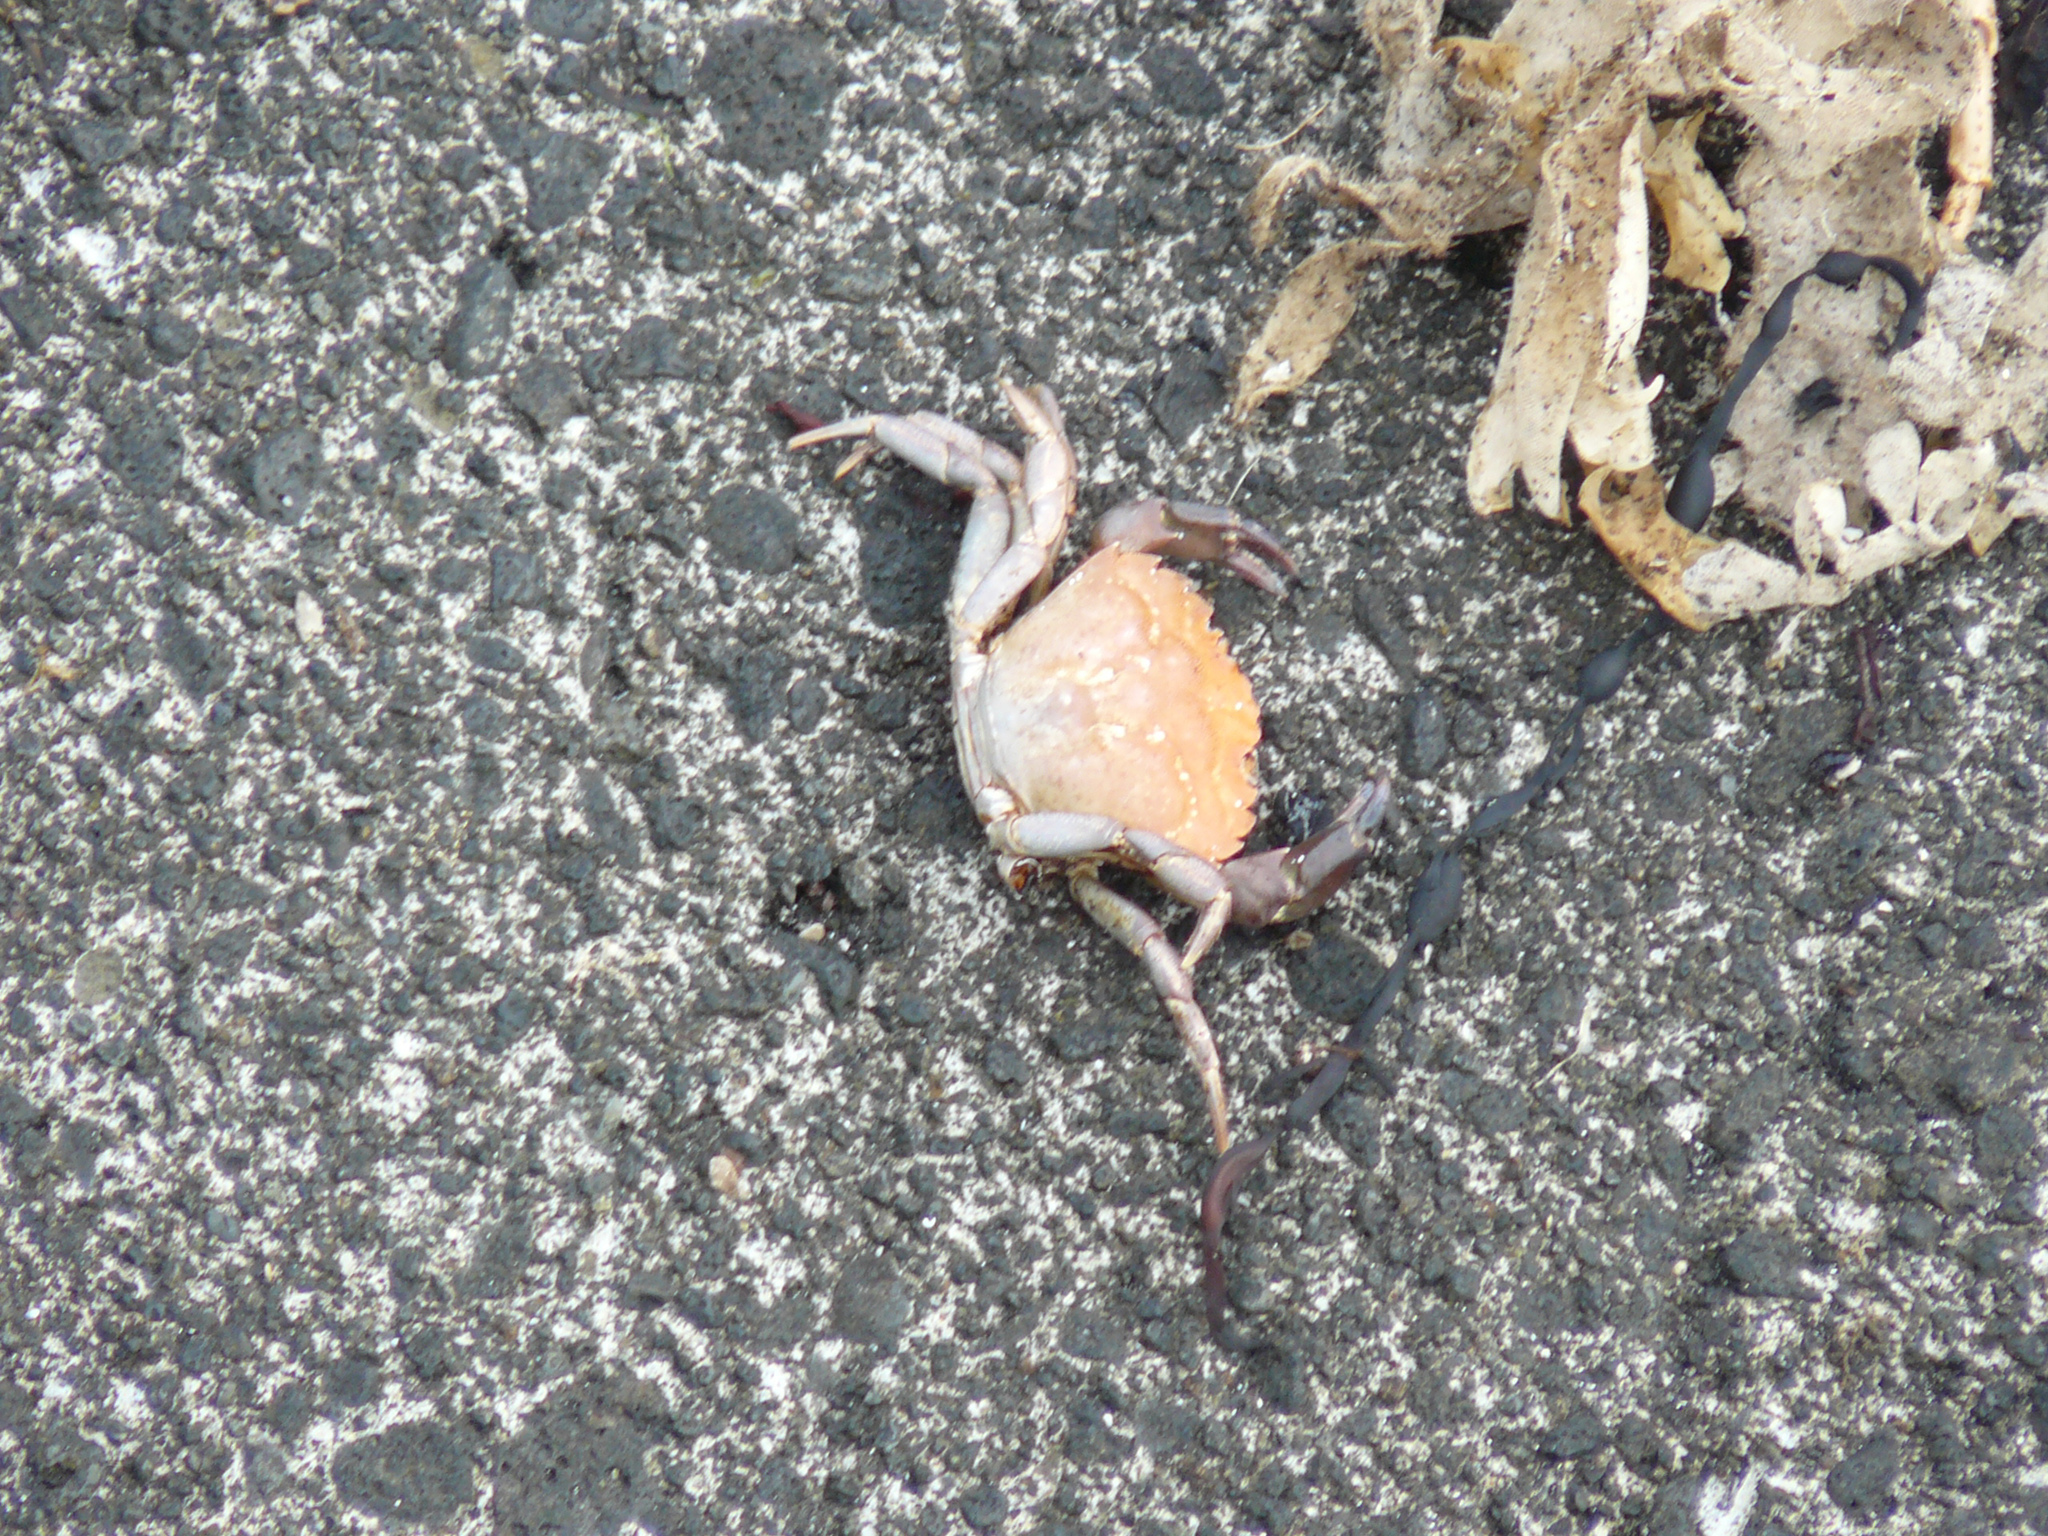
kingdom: Animalia
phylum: Arthropoda
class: Malacostraca
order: Decapoda
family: Carcinidae
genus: Carcinus
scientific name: Carcinus maenas
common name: European green crab
